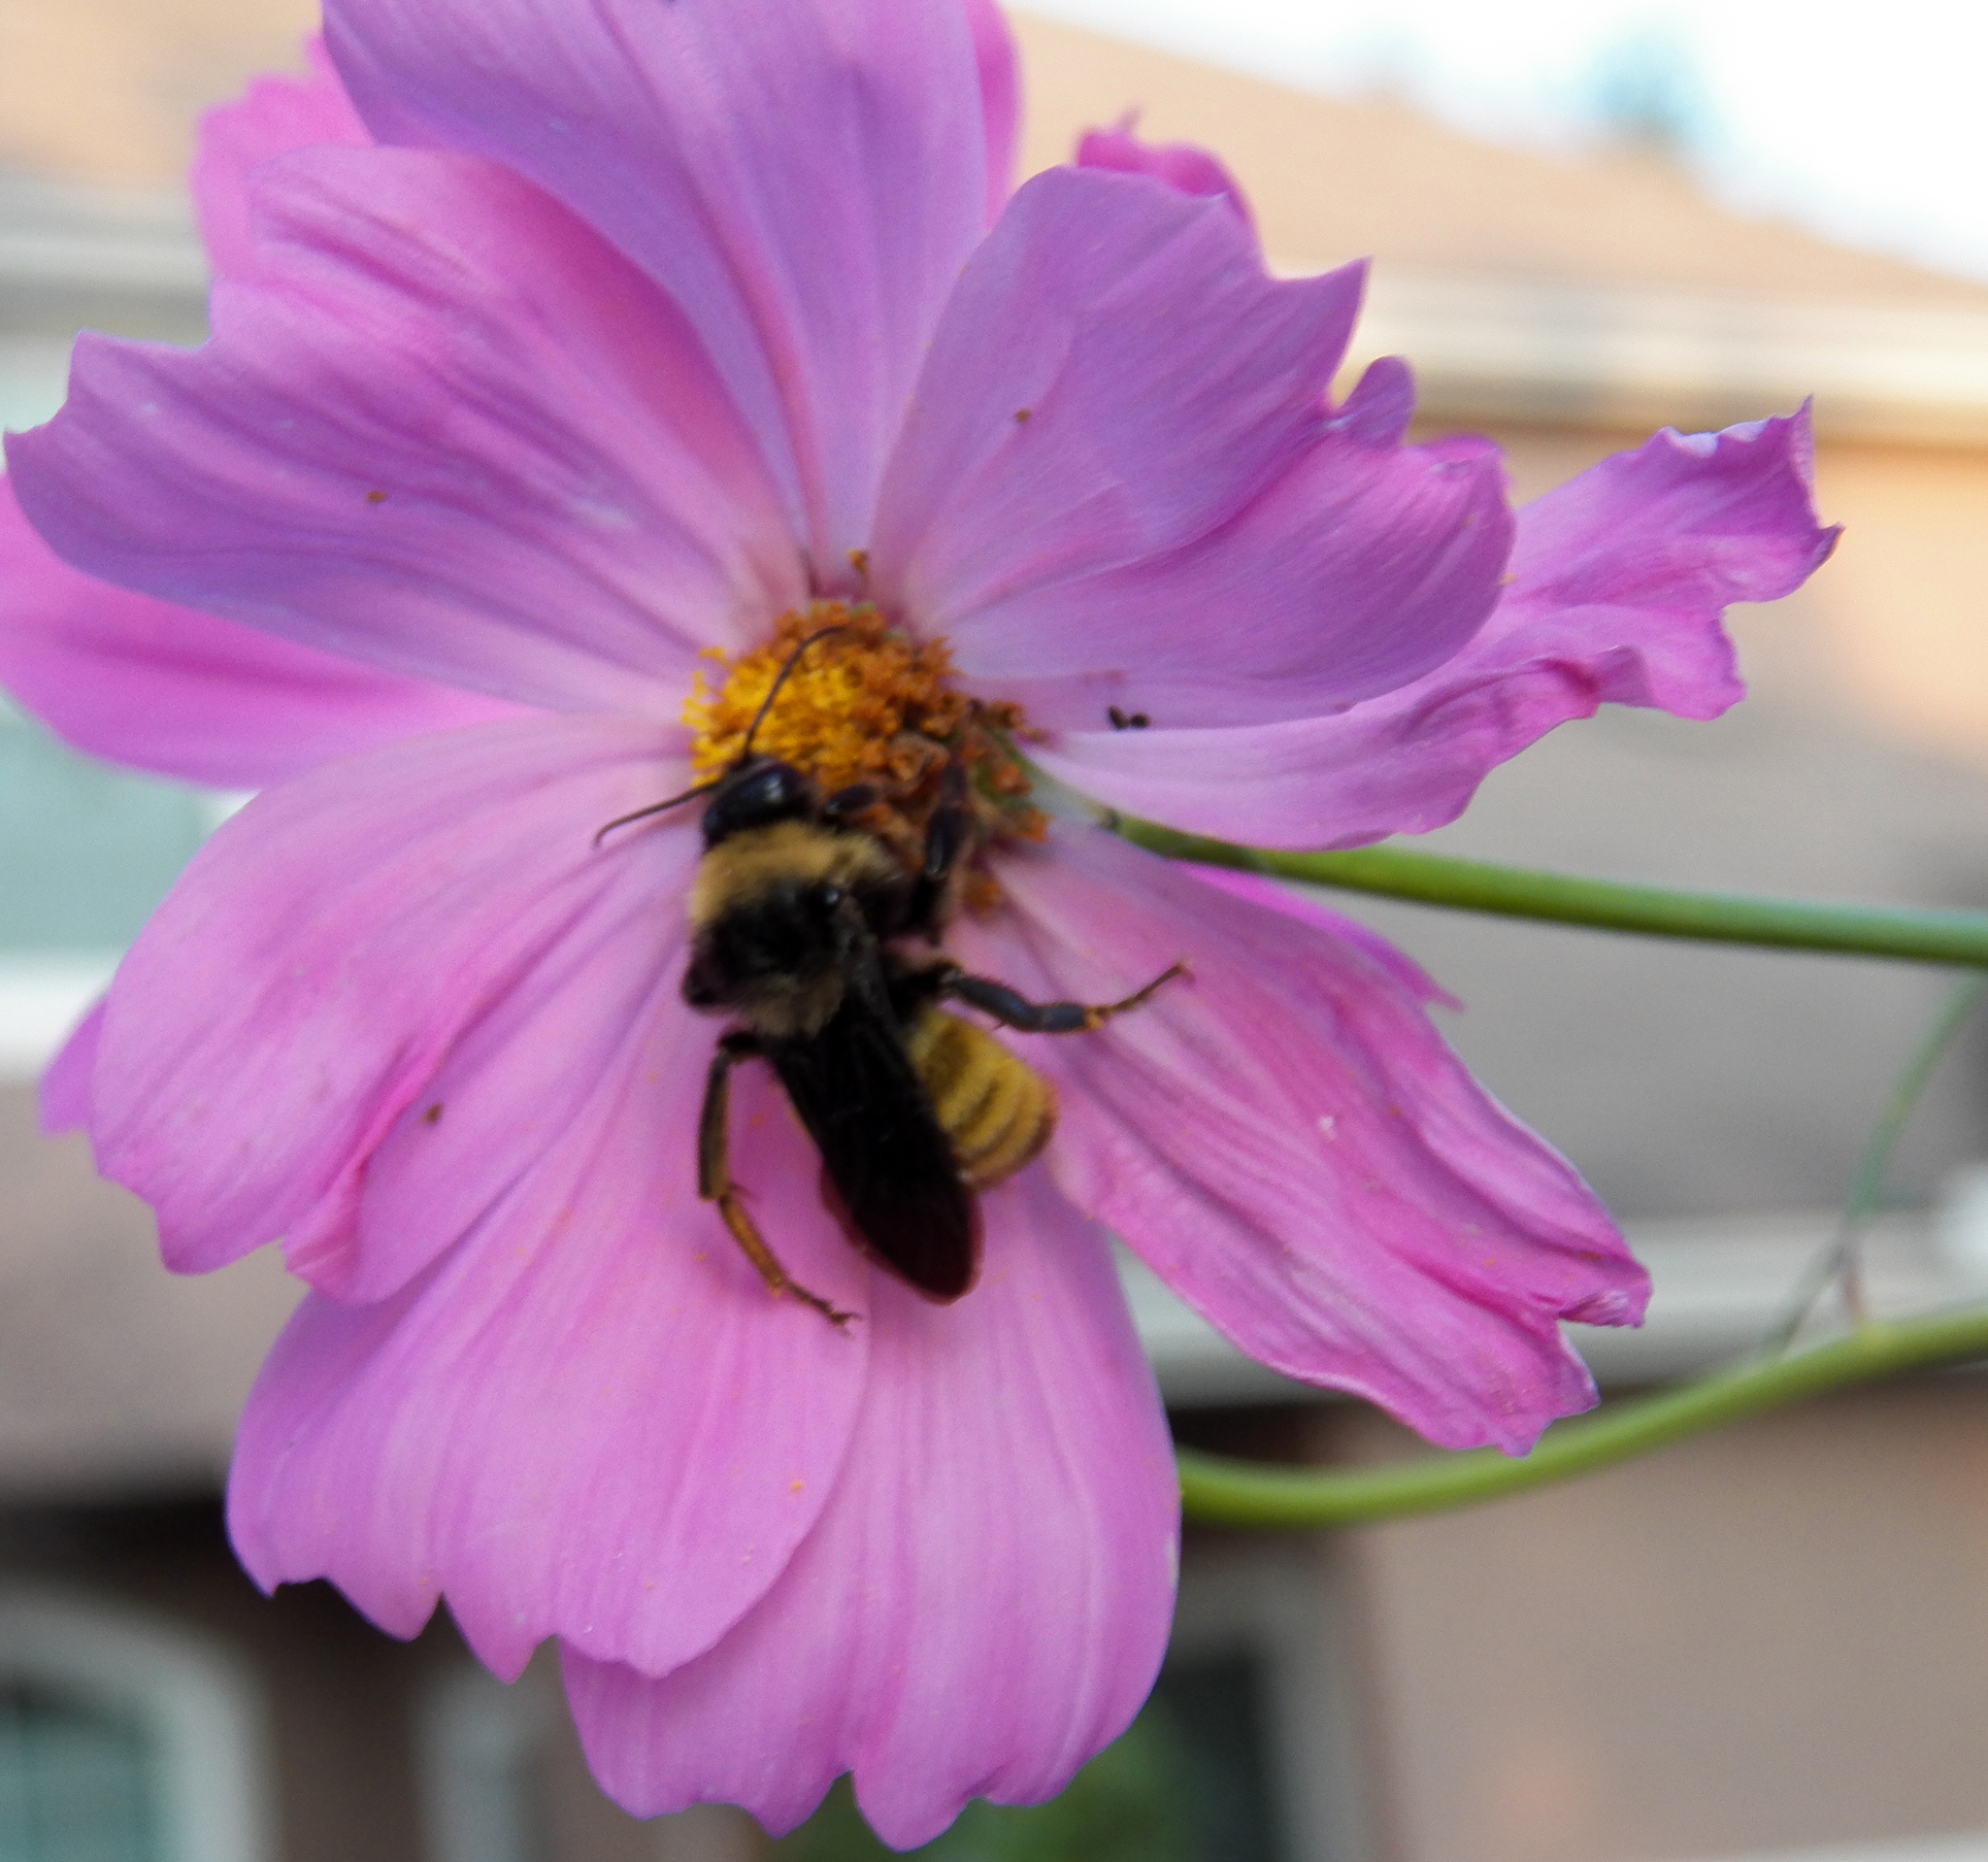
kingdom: Animalia
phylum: Arthropoda
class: Insecta
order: Hymenoptera
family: Apidae
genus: Bombus
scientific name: Bombus pensylvanicus
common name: Bumble bee
